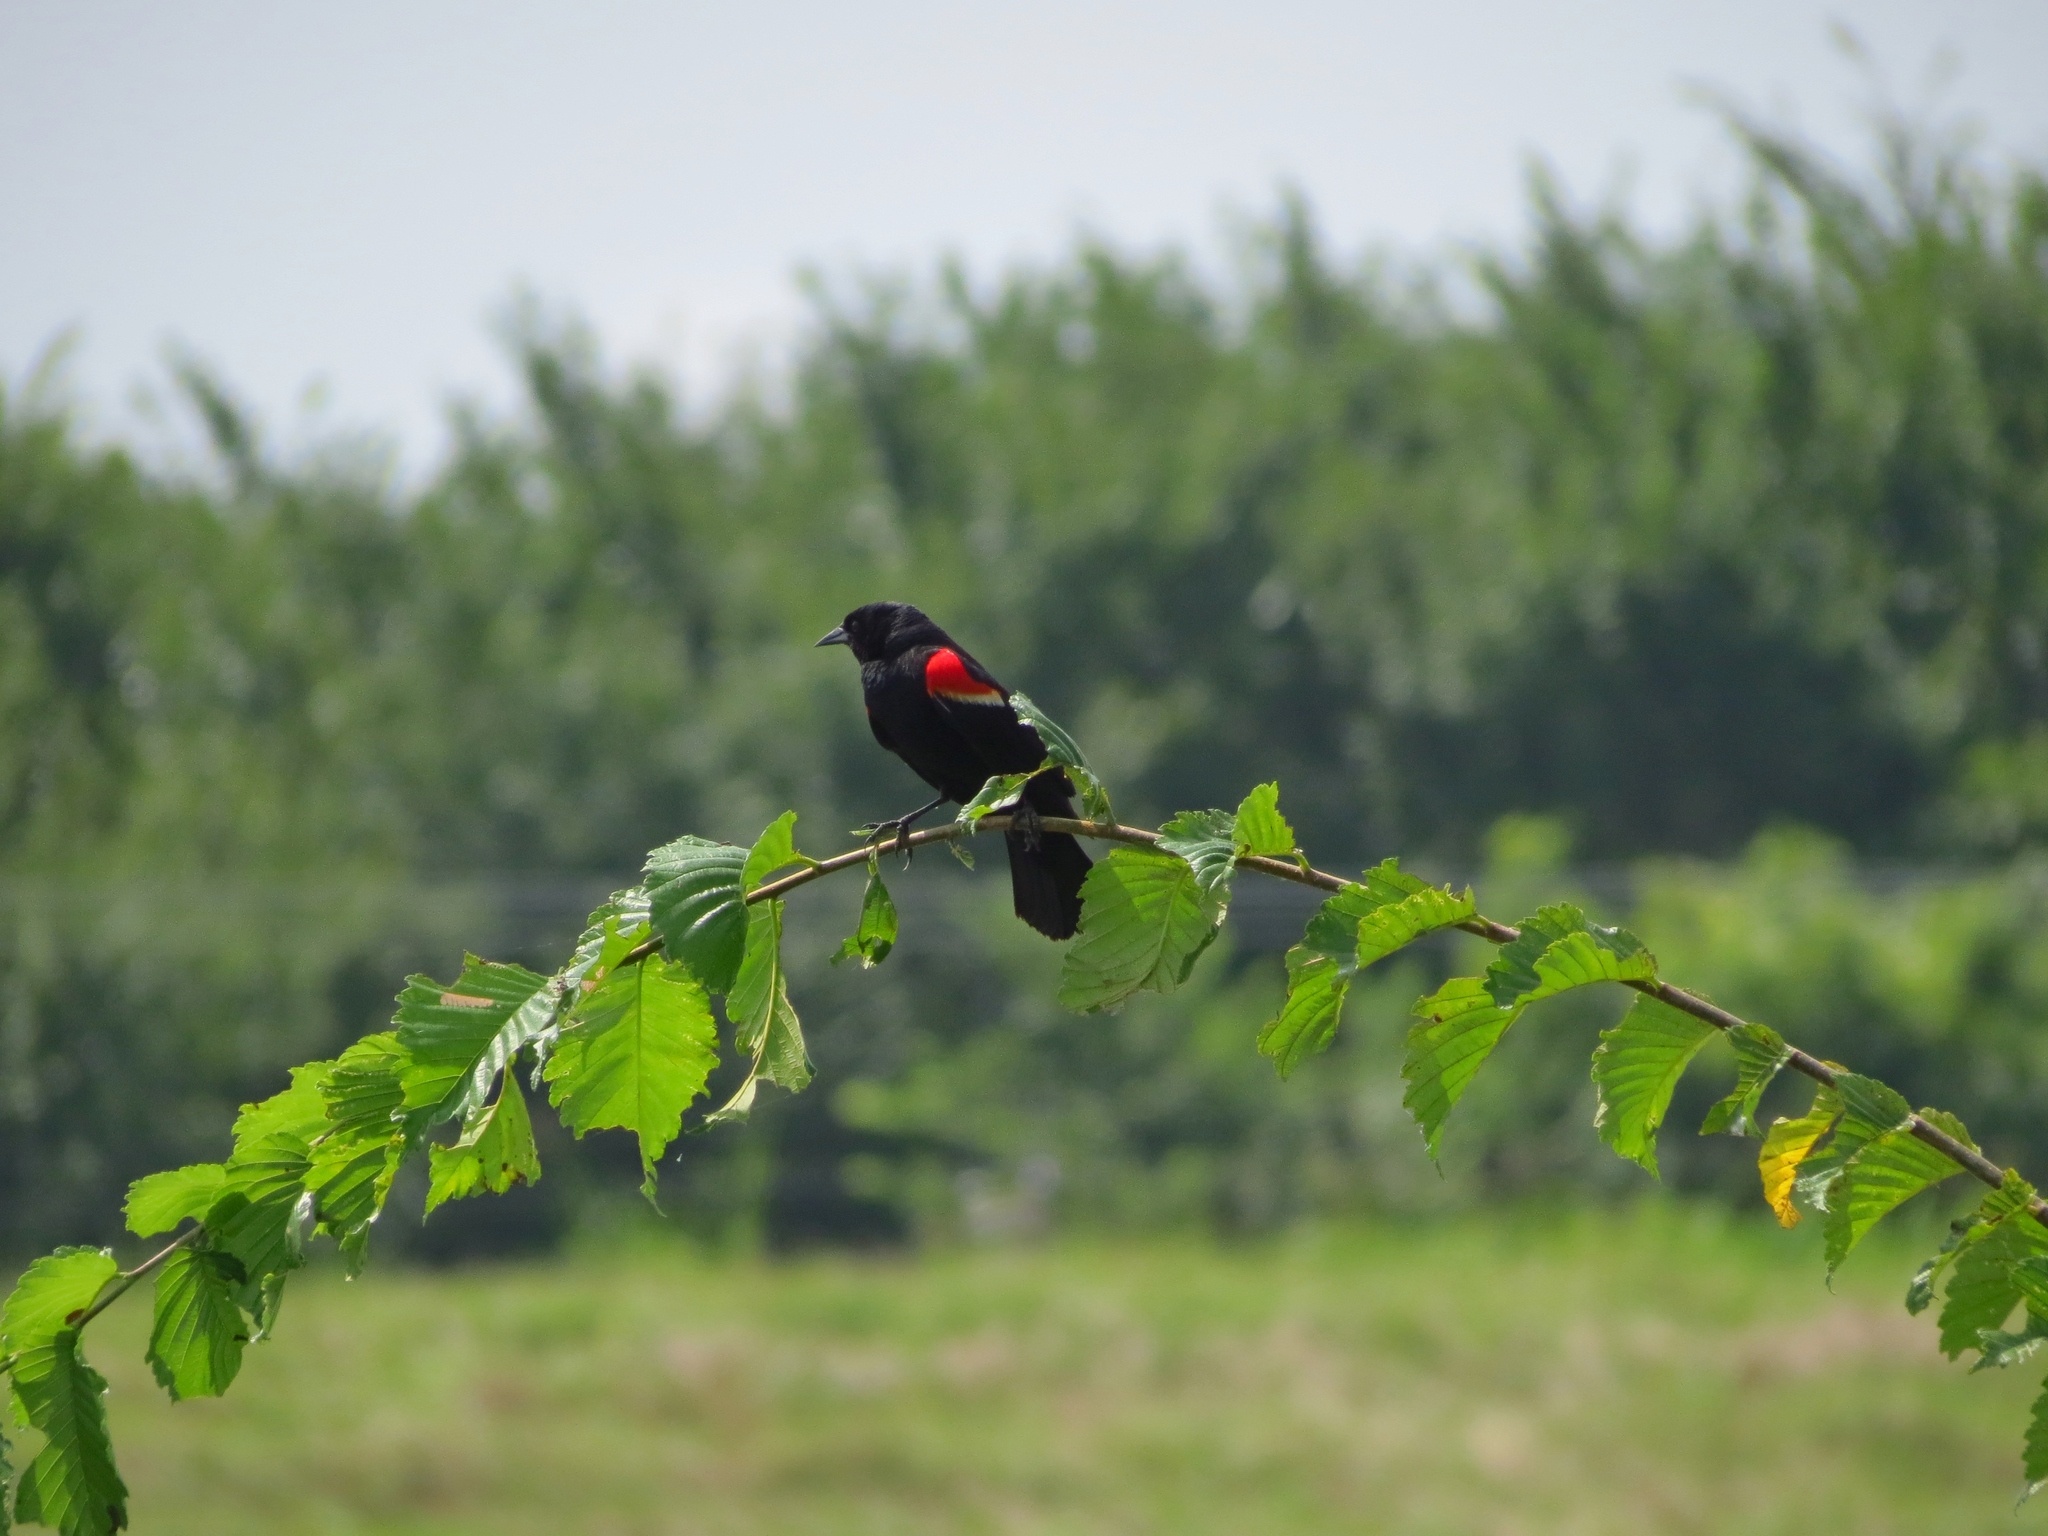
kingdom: Animalia
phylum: Chordata
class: Aves
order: Passeriformes
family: Icteridae
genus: Agelaius
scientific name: Agelaius phoeniceus
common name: Red-winged blackbird
